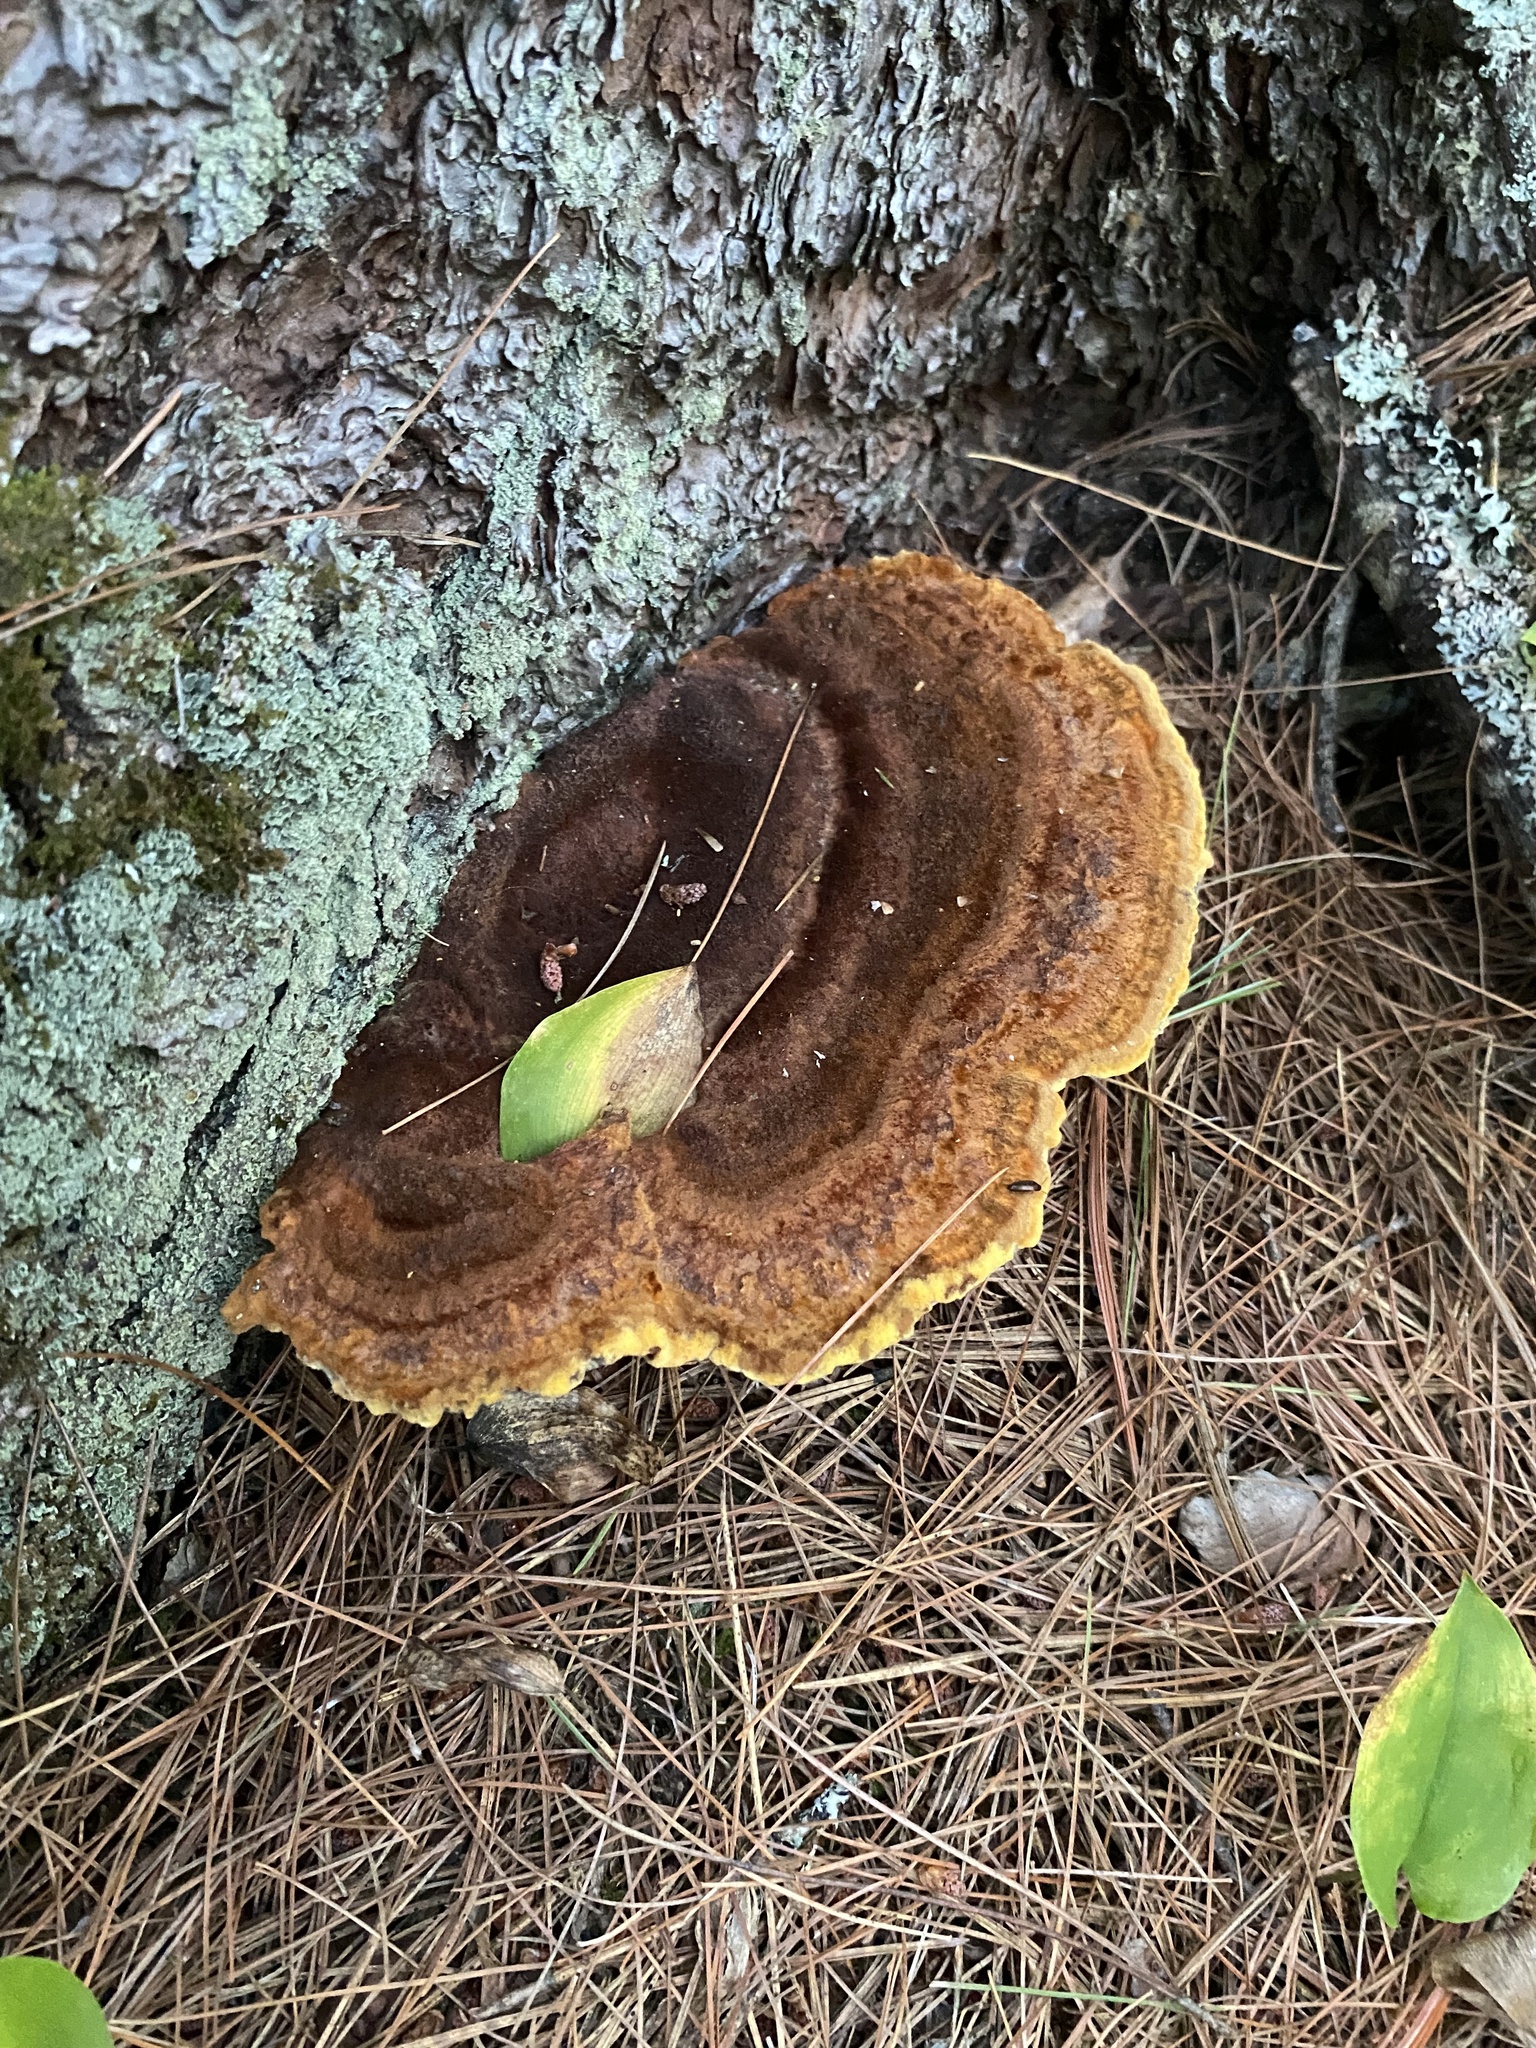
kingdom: Fungi
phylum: Basidiomycota
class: Agaricomycetes
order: Polyporales
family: Laetiporaceae
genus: Phaeolus
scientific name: Phaeolus schweinitzii
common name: Dyer's mazegill
